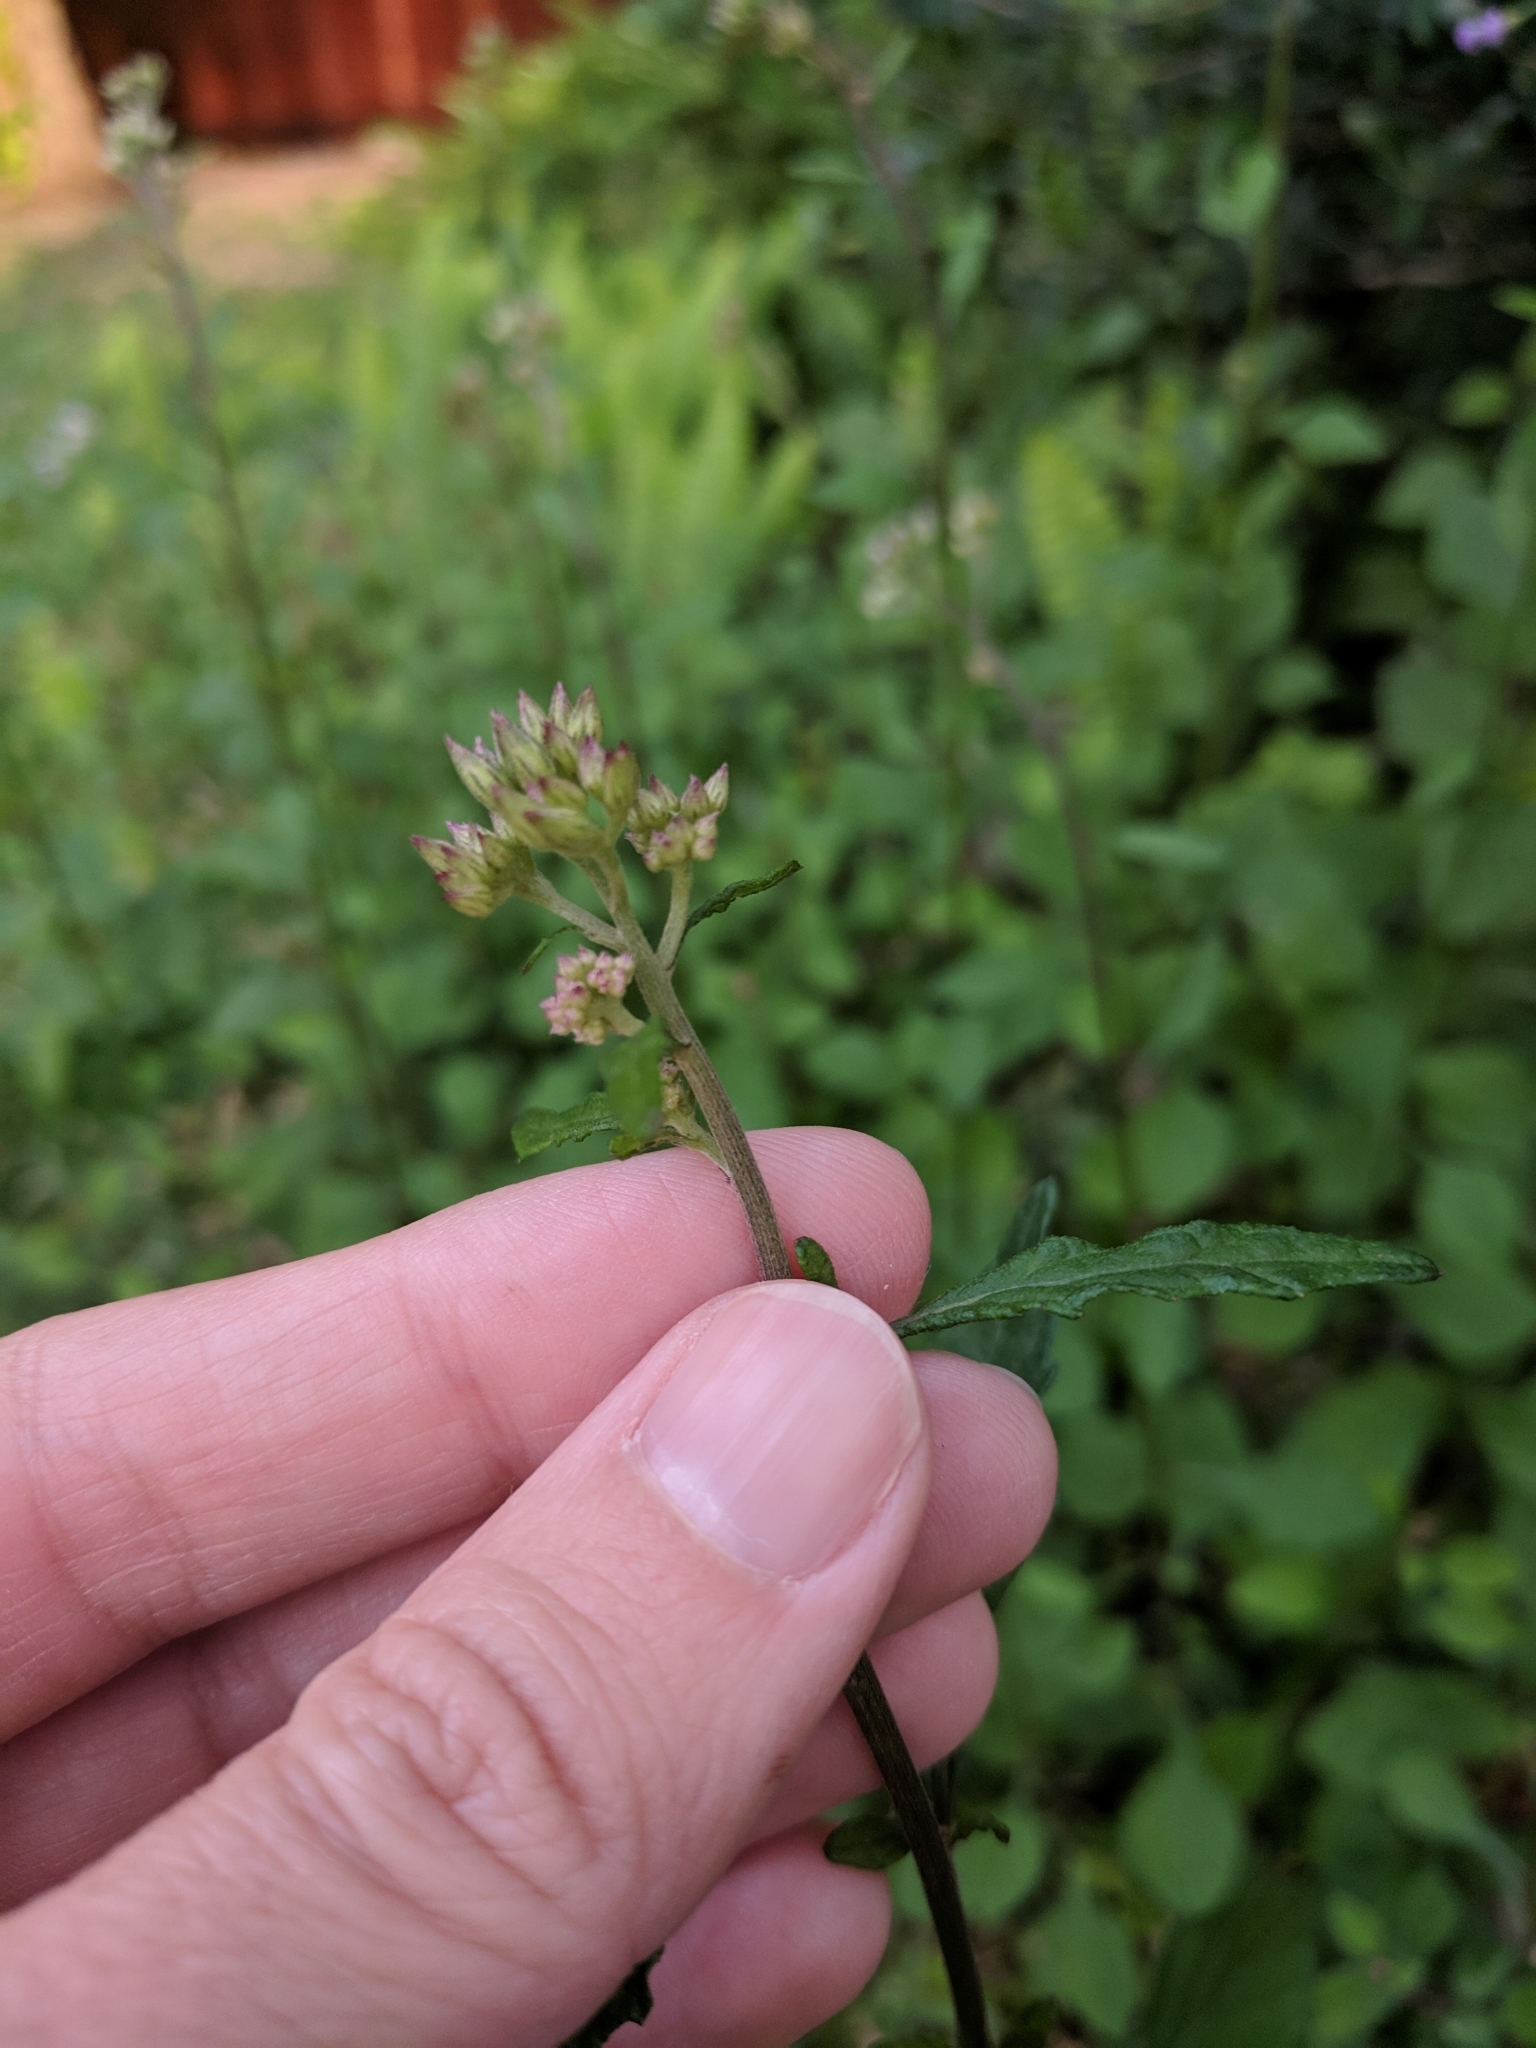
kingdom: Plantae
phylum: Tracheophyta
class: Magnoliopsida
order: Asterales
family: Asteraceae
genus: Cyanthillium
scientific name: Cyanthillium cinereum
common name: Little ironweed
